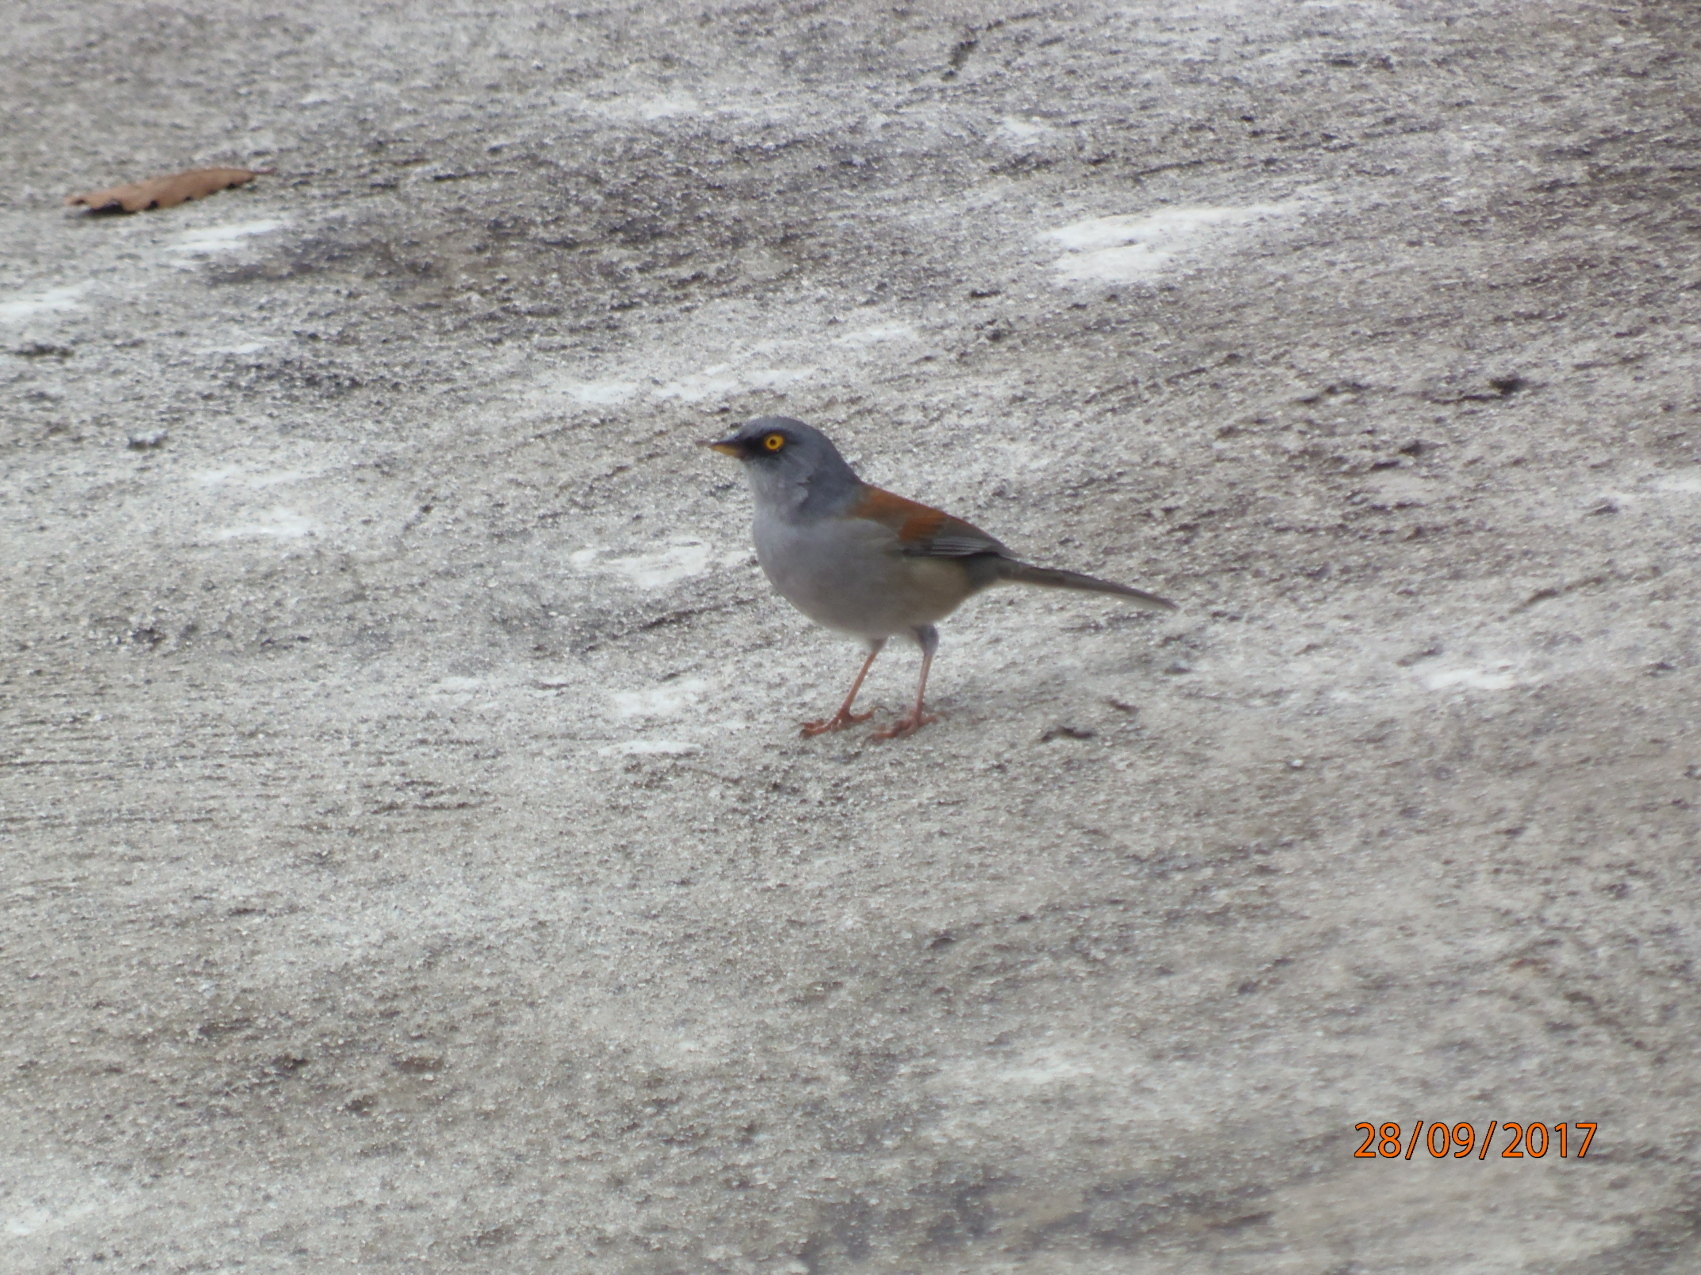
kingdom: Animalia
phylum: Chordata
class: Aves
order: Passeriformes
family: Passerellidae
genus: Junco
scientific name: Junco phaeonotus
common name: Yellow-eyed junco
